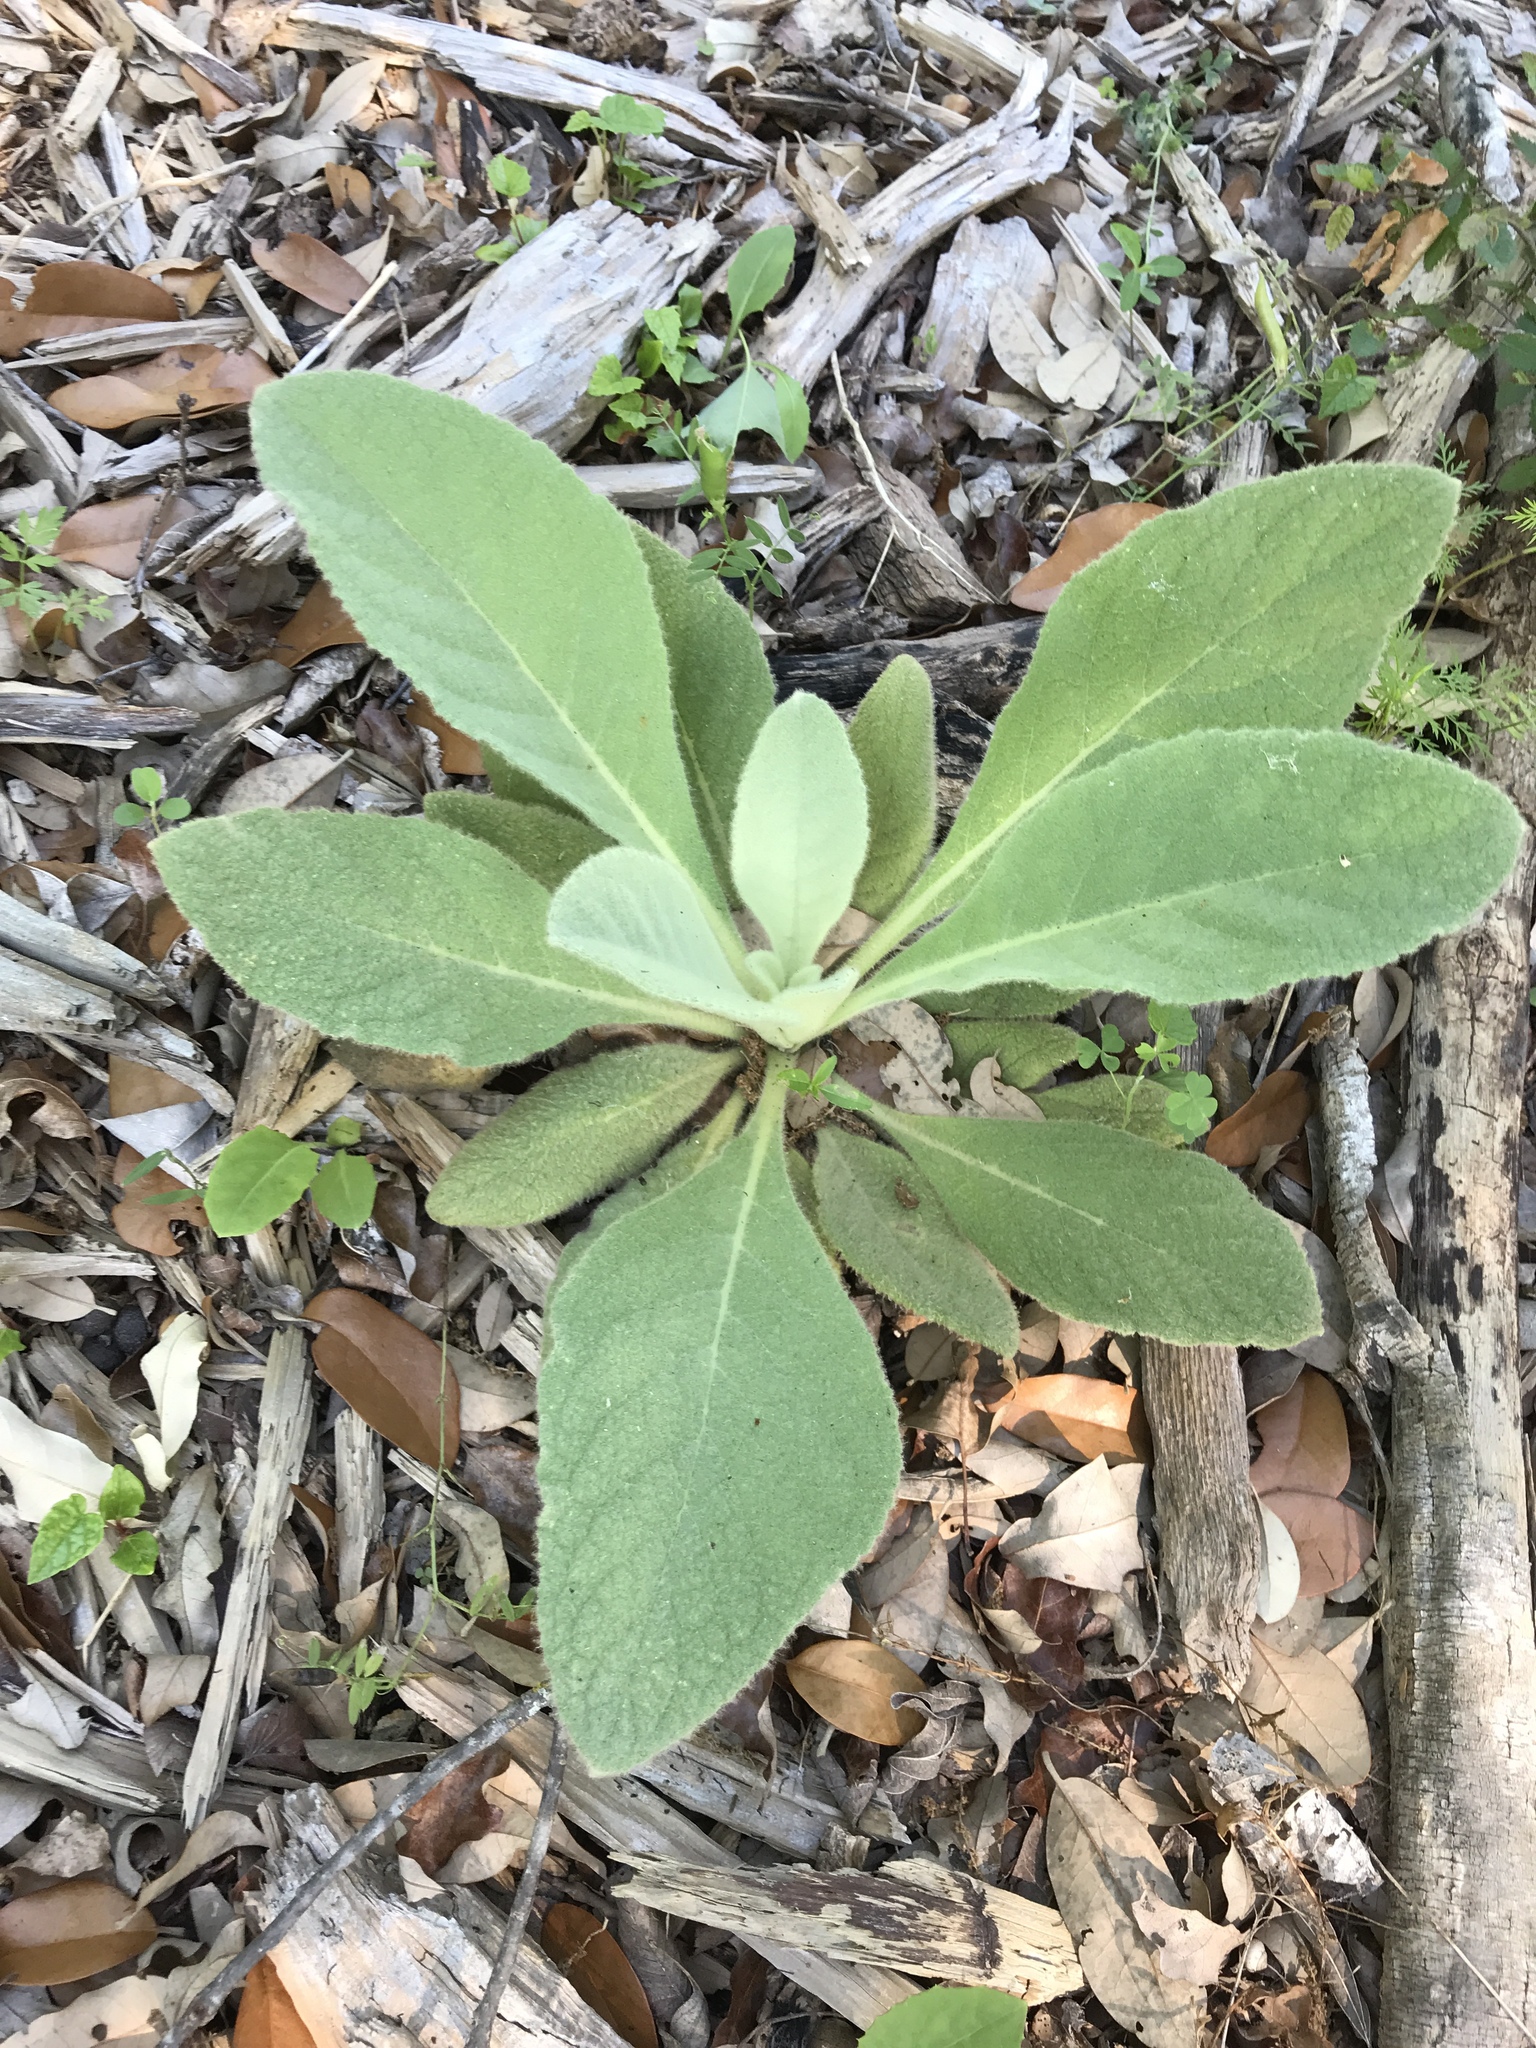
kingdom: Plantae
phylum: Tracheophyta
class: Magnoliopsida
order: Lamiales
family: Scrophulariaceae
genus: Verbascum
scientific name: Verbascum thapsus
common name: Common mullein
